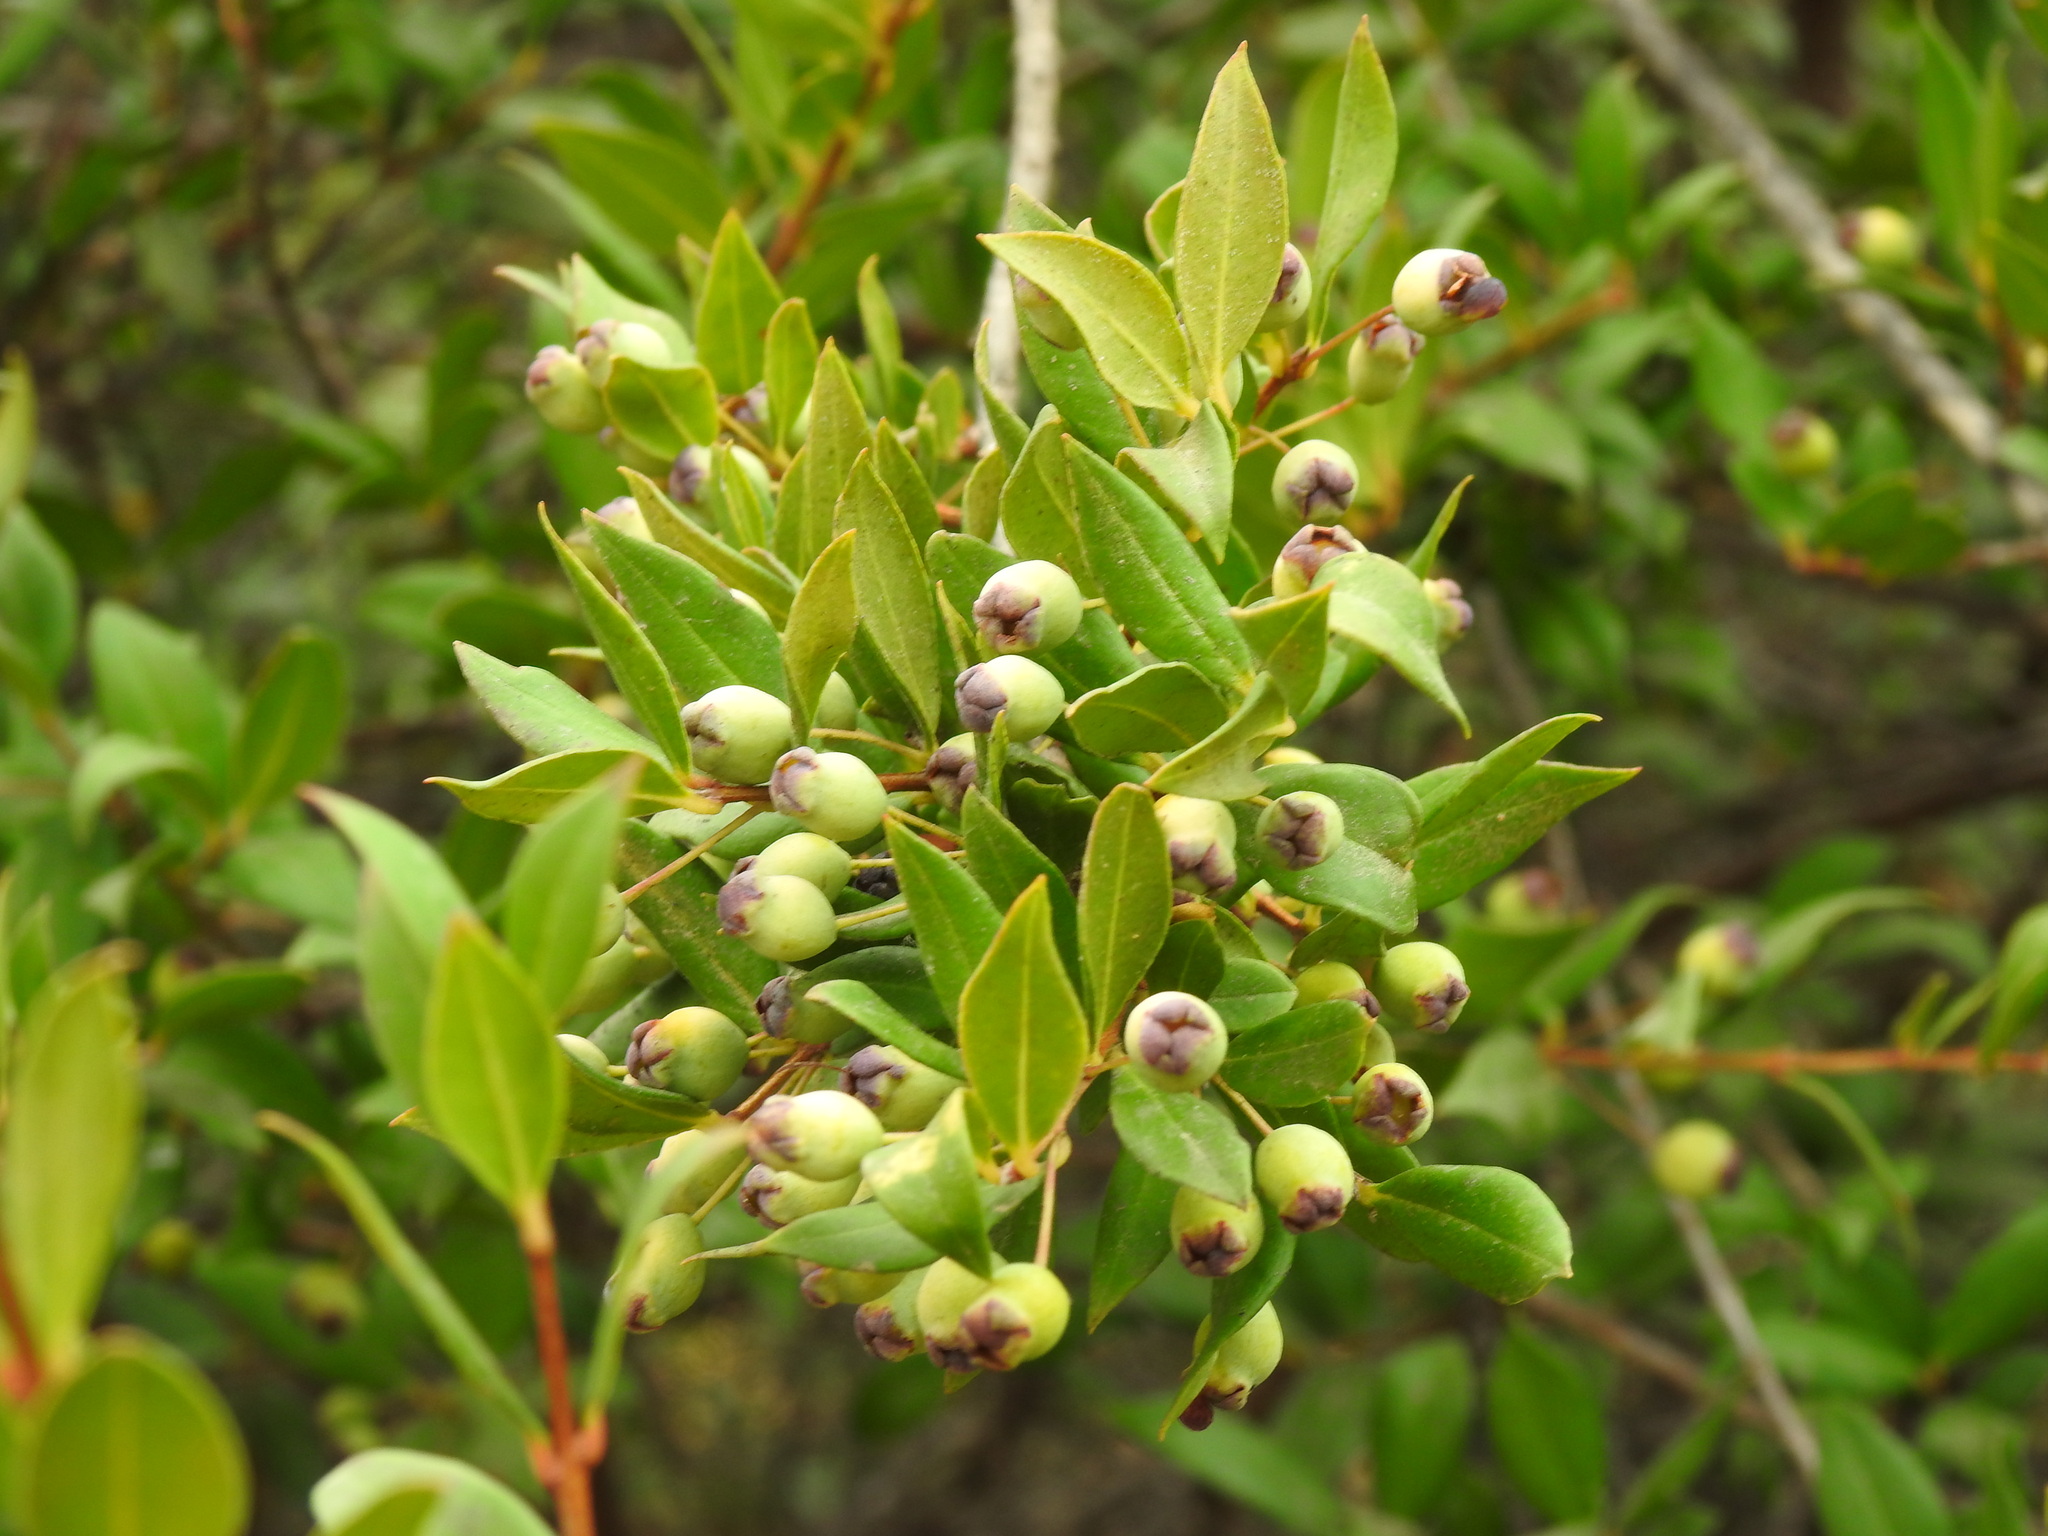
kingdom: Plantae
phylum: Tracheophyta
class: Magnoliopsida
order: Myrtales
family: Myrtaceae
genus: Myrtus
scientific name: Myrtus communis
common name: Myrtle
